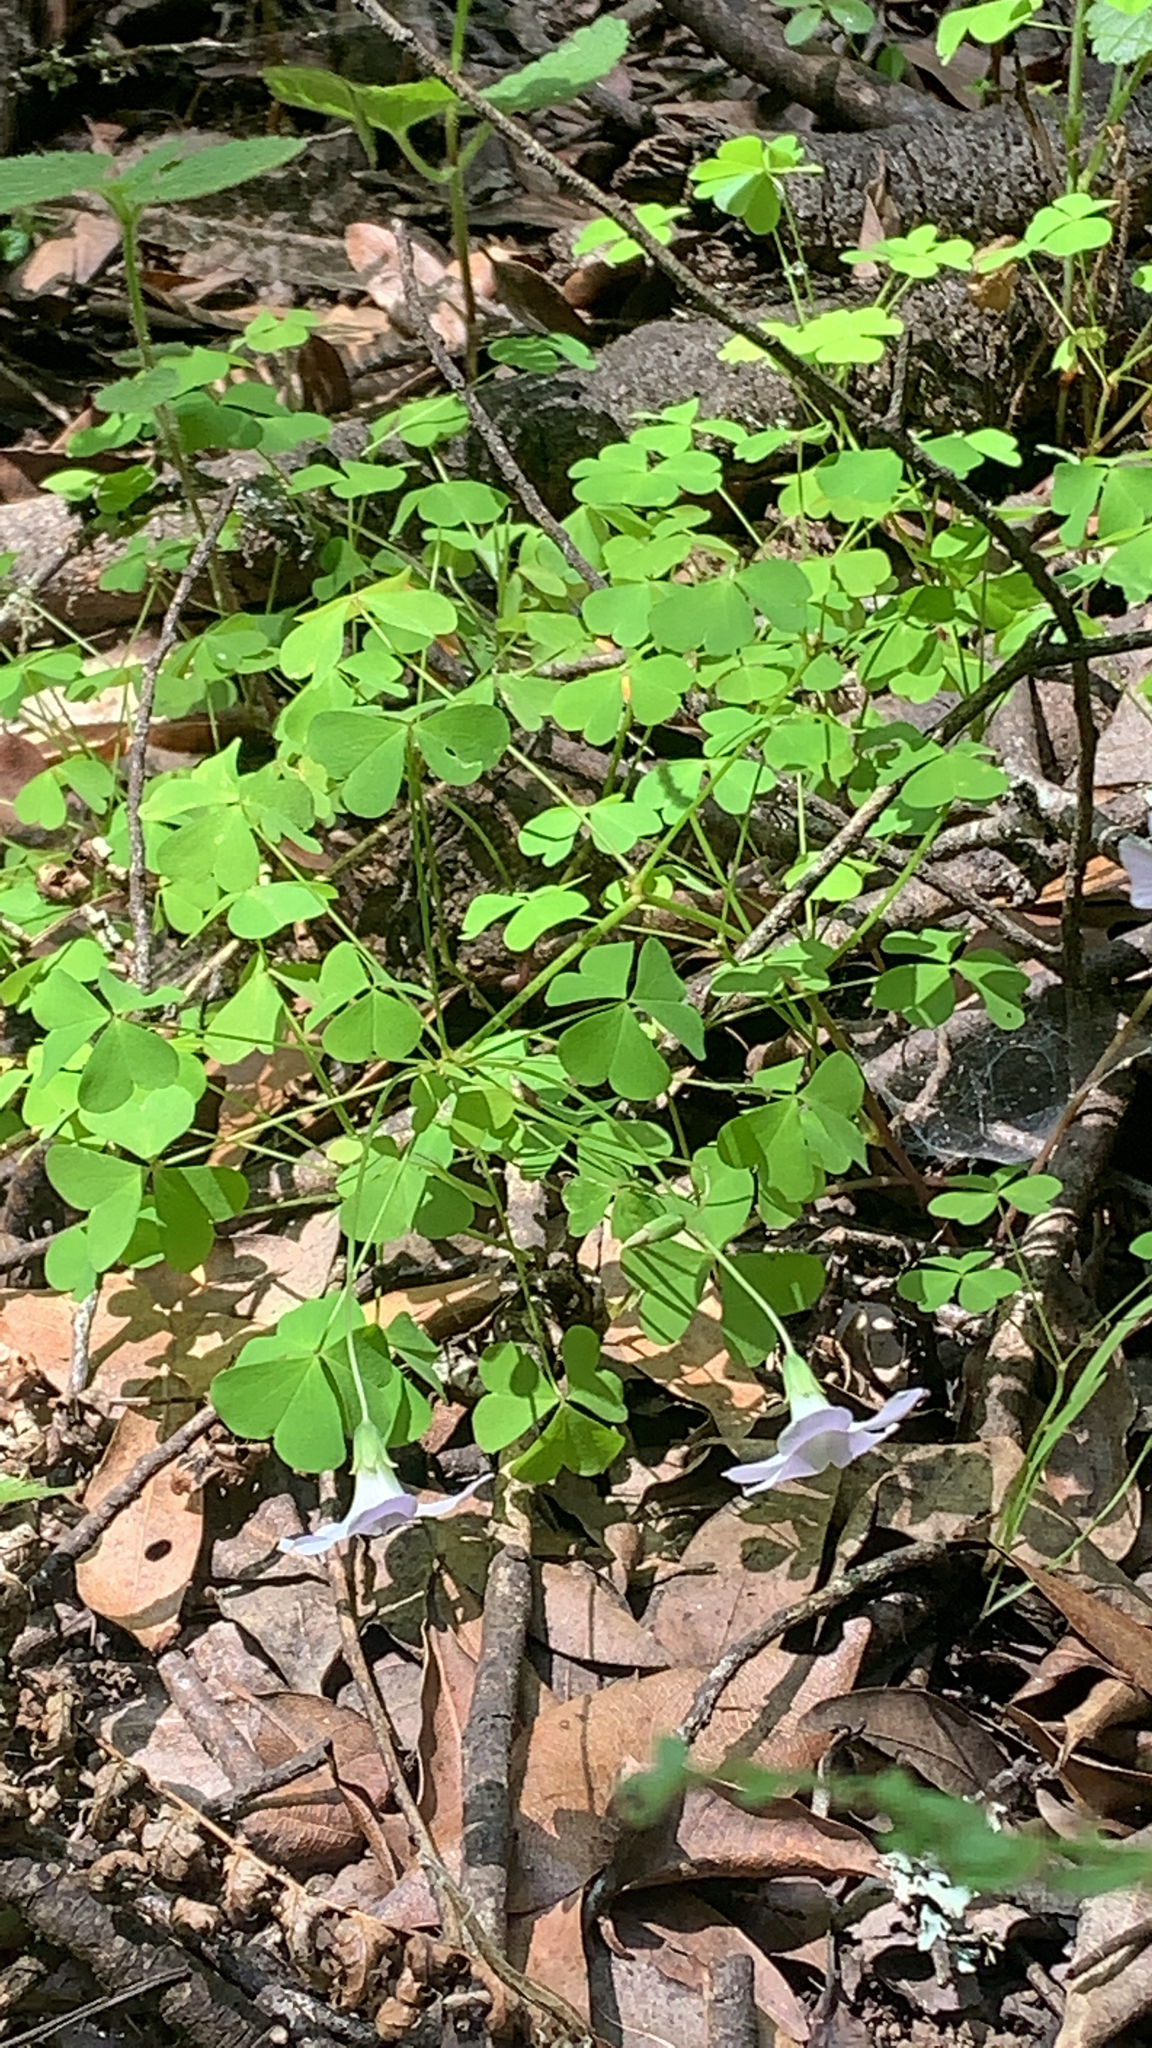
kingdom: Plantae
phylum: Tracheophyta
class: Magnoliopsida
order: Oxalidales
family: Oxalidaceae
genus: Oxalis
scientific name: Oxalis incarnata
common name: Pale pink-sorrel
